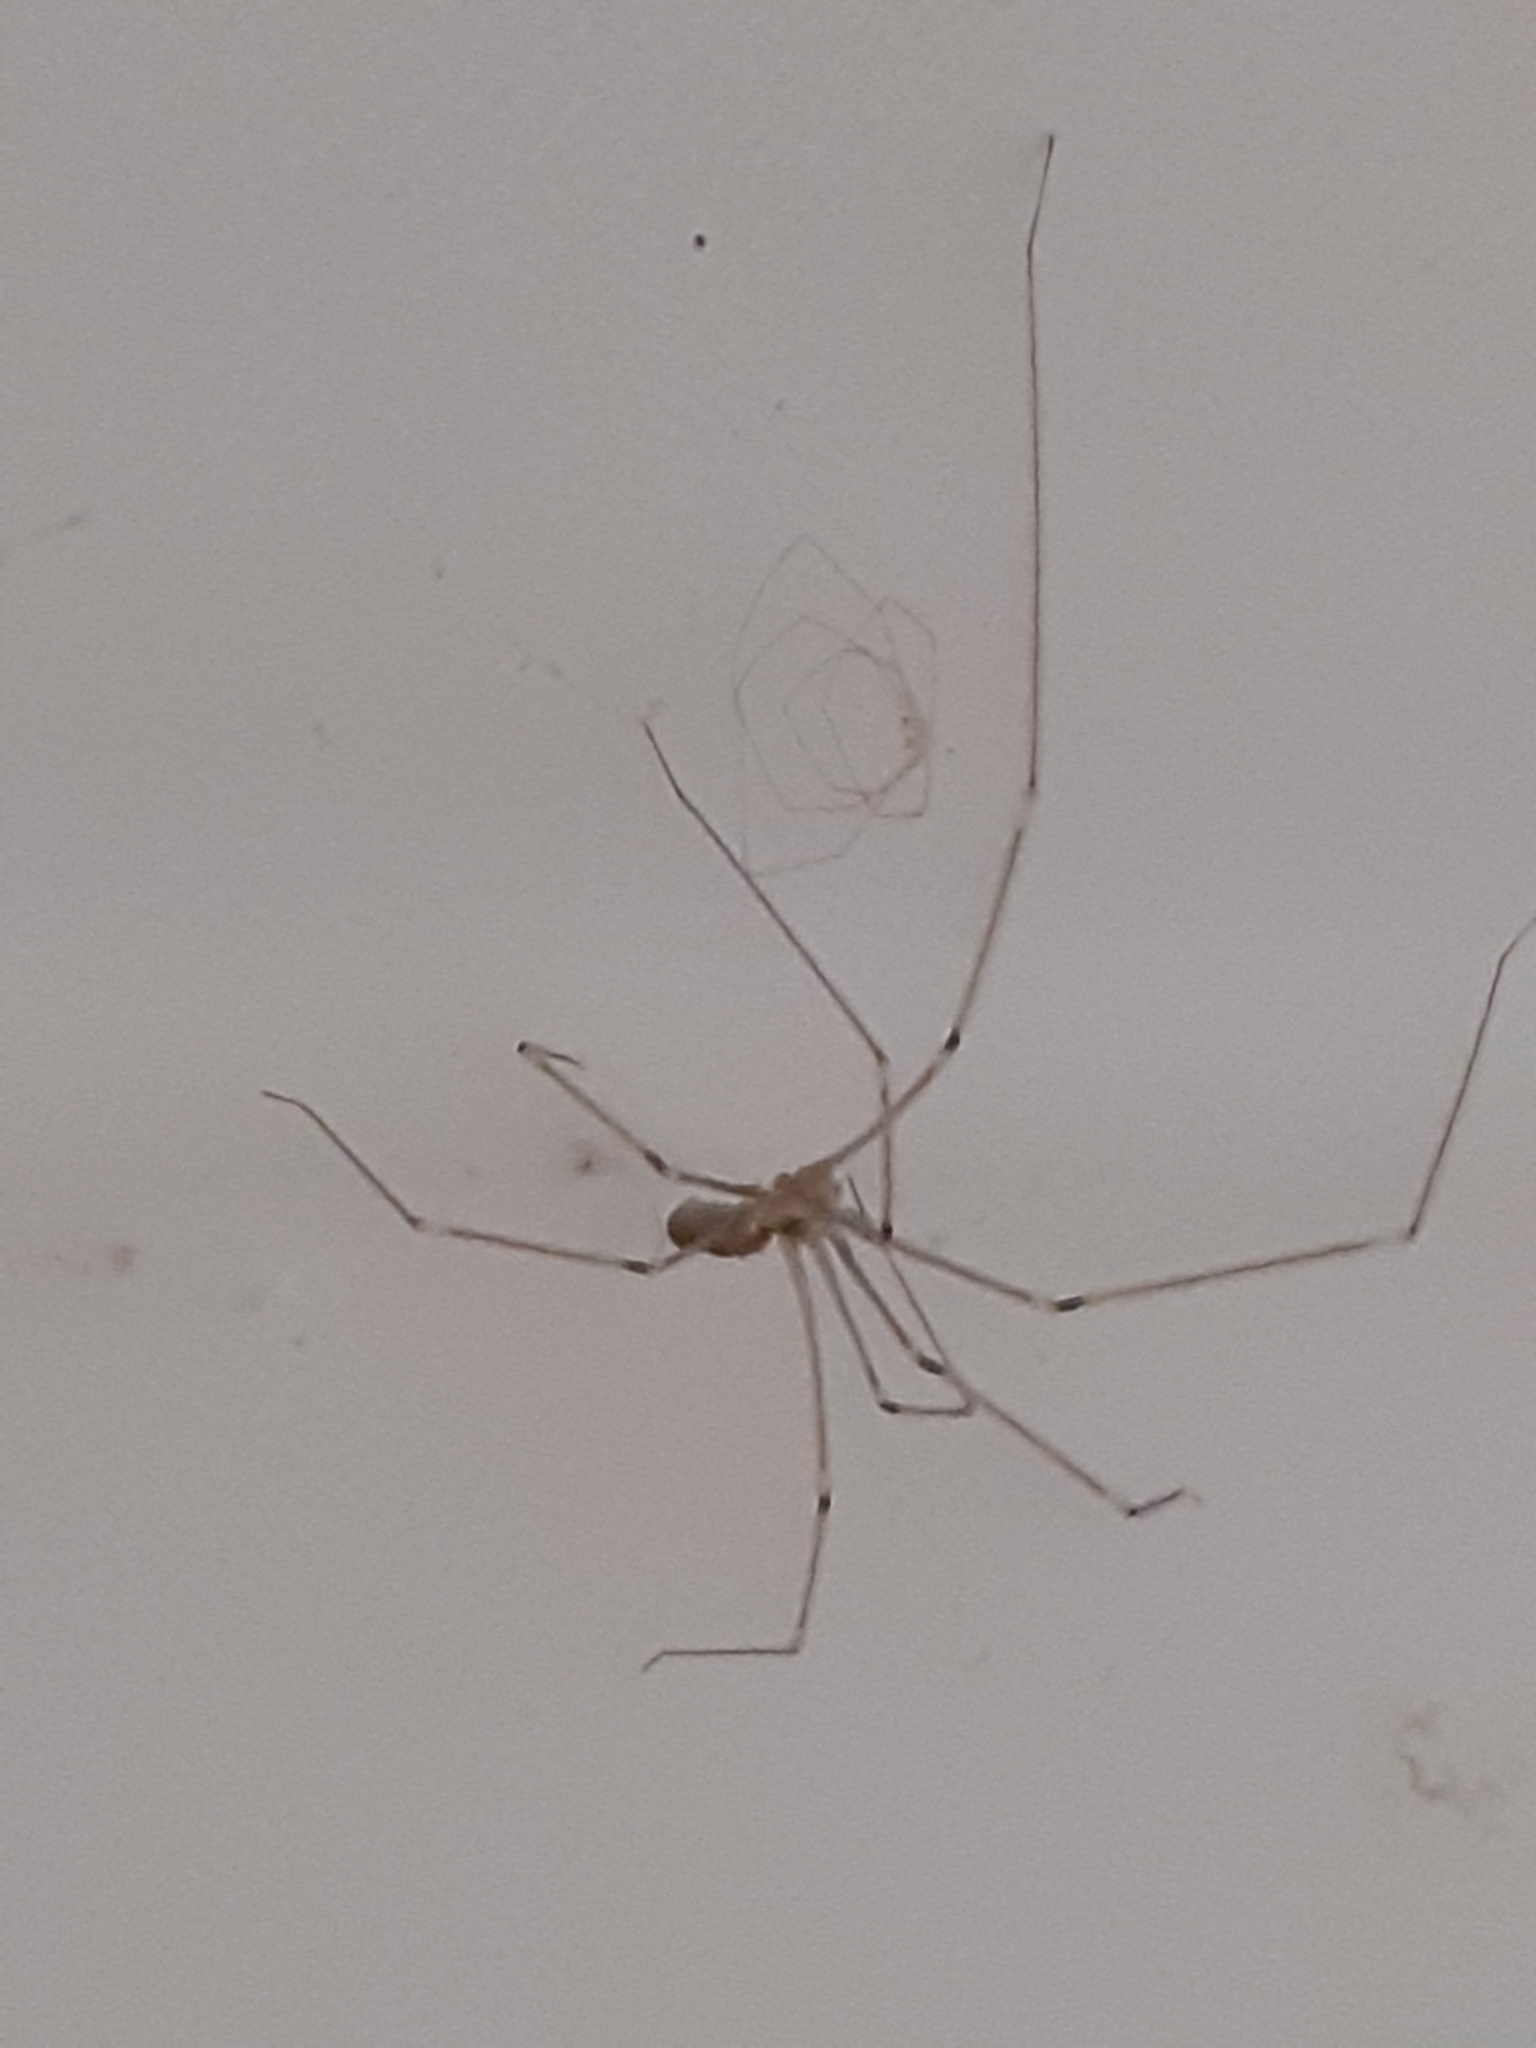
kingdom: Animalia
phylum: Arthropoda
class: Arachnida
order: Araneae
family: Pholcidae
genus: Pholcus
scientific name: Pholcus phalangioides
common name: Longbodied cellar spider
